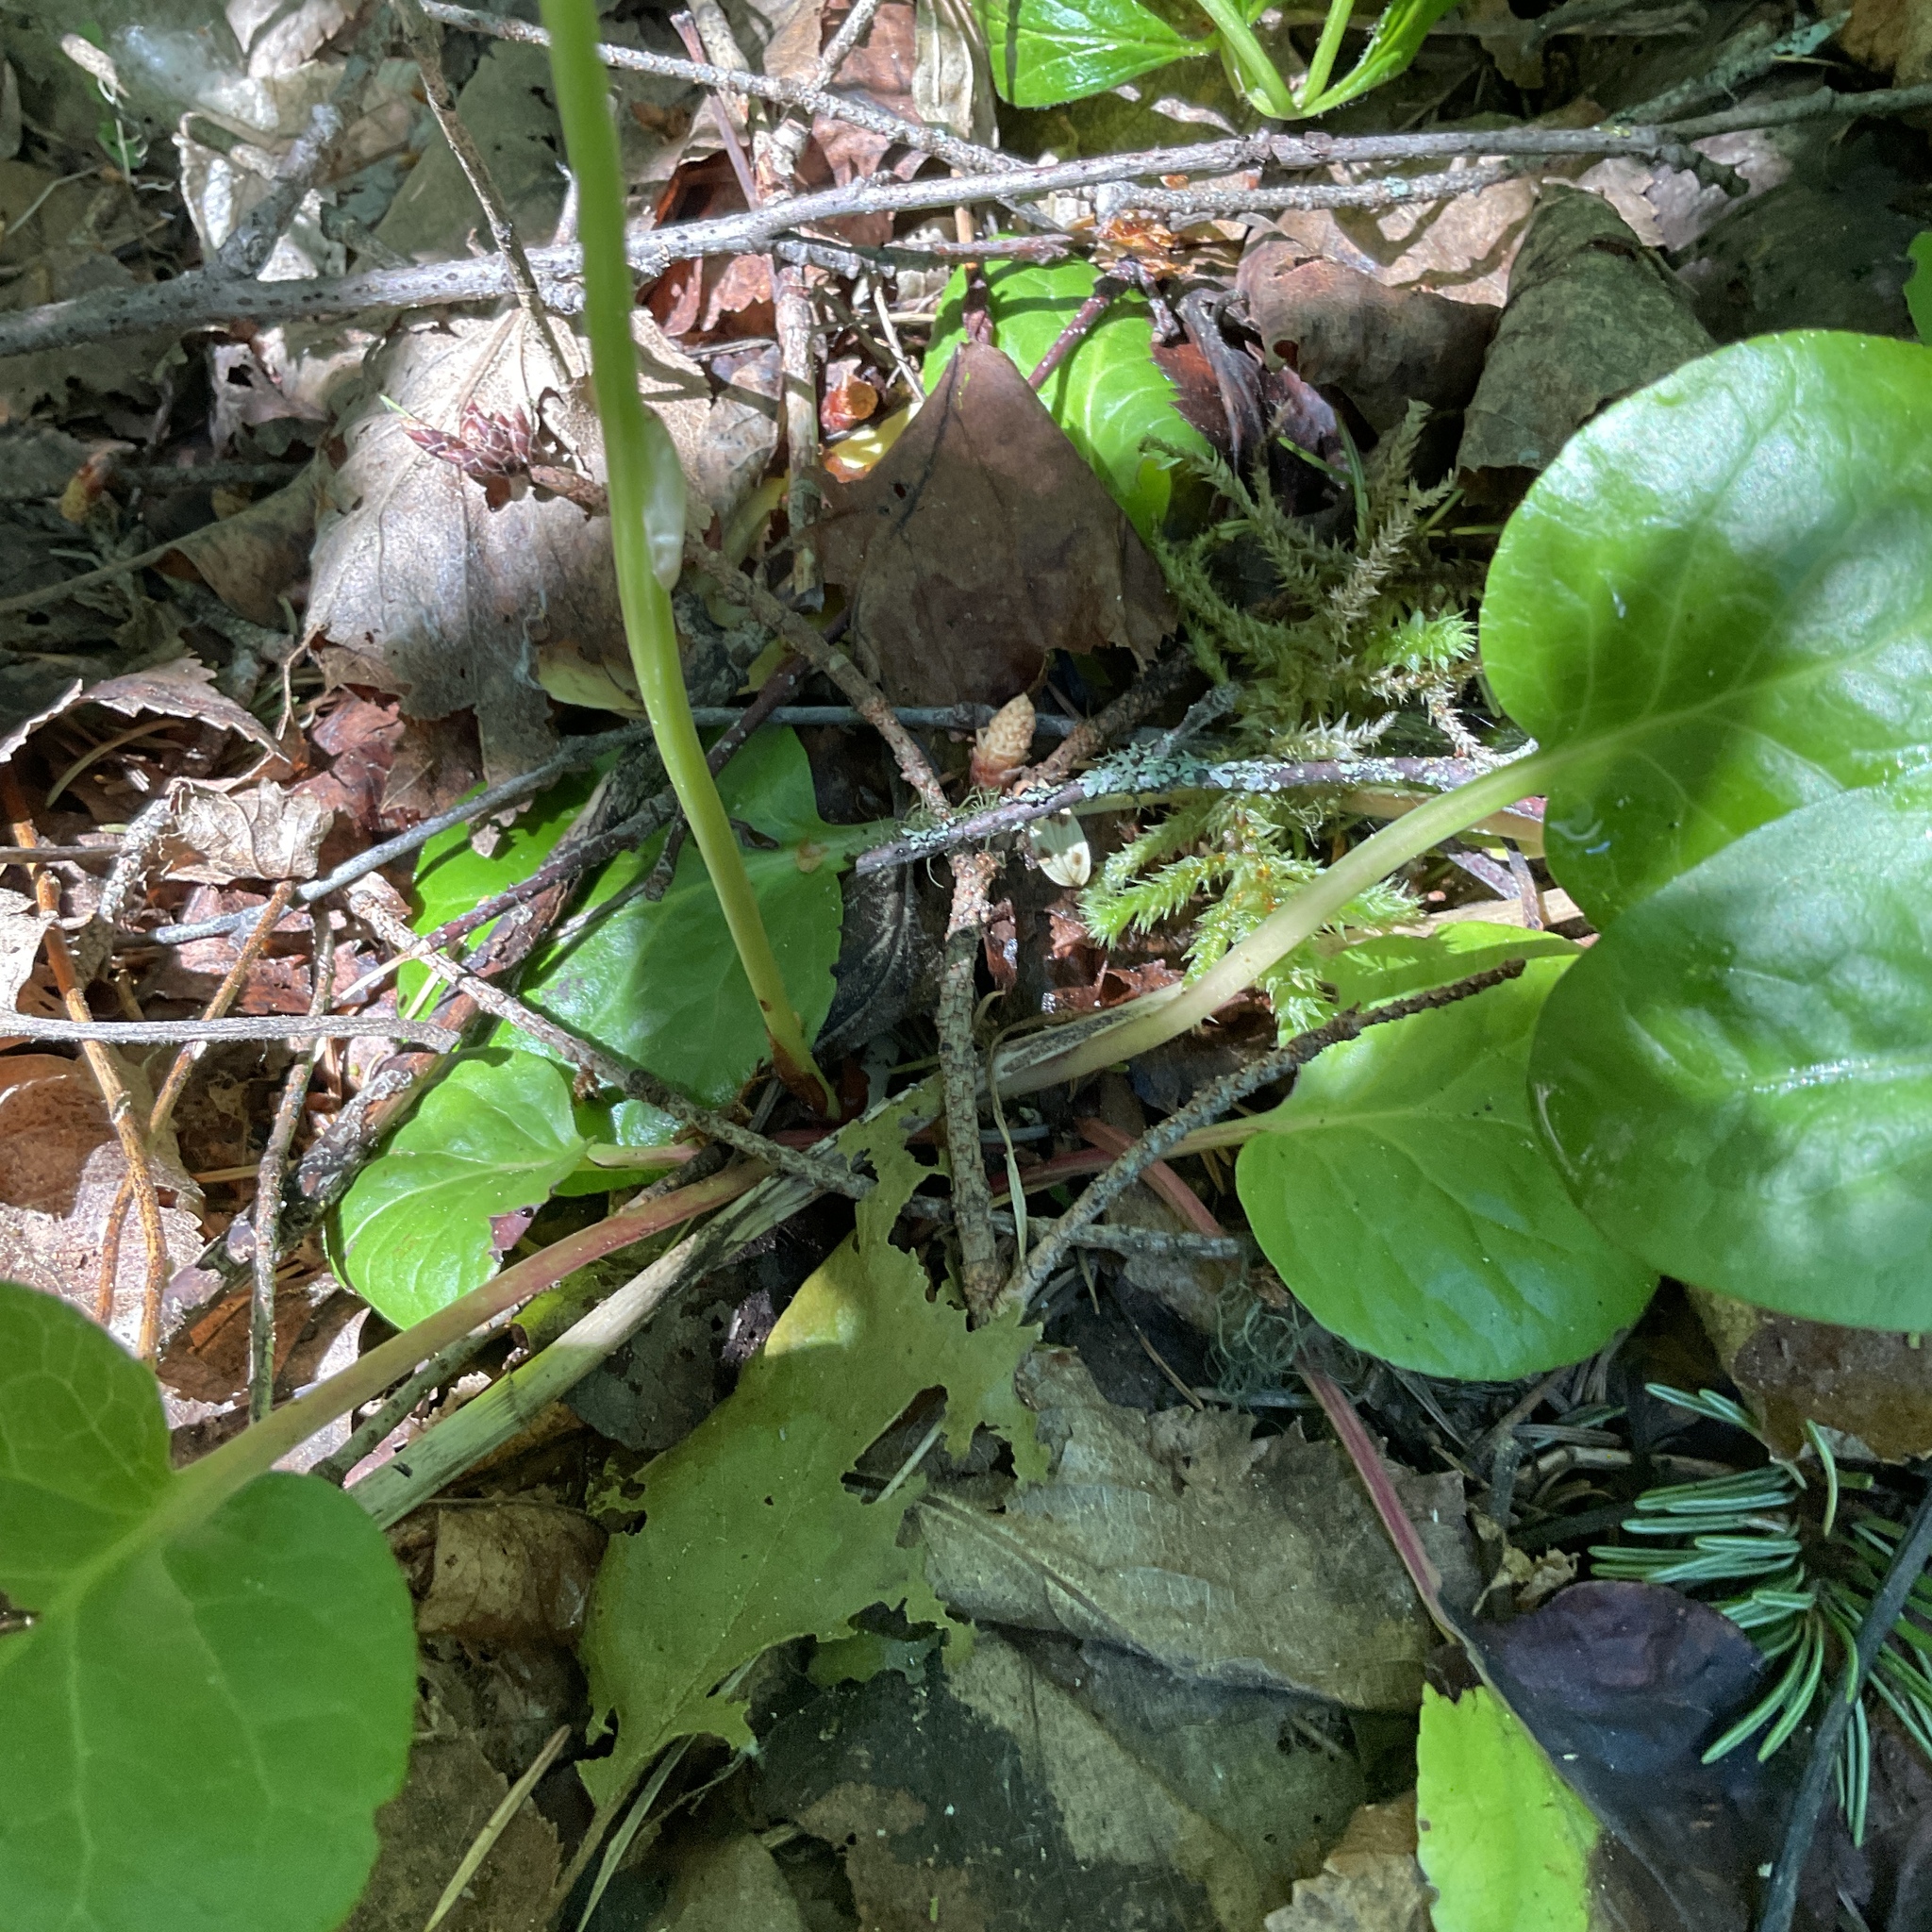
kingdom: Plantae
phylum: Tracheophyta
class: Magnoliopsida
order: Ericales
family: Ericaceae
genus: Pyrola
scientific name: Pyrola asarifolia
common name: Bog wintergreen
